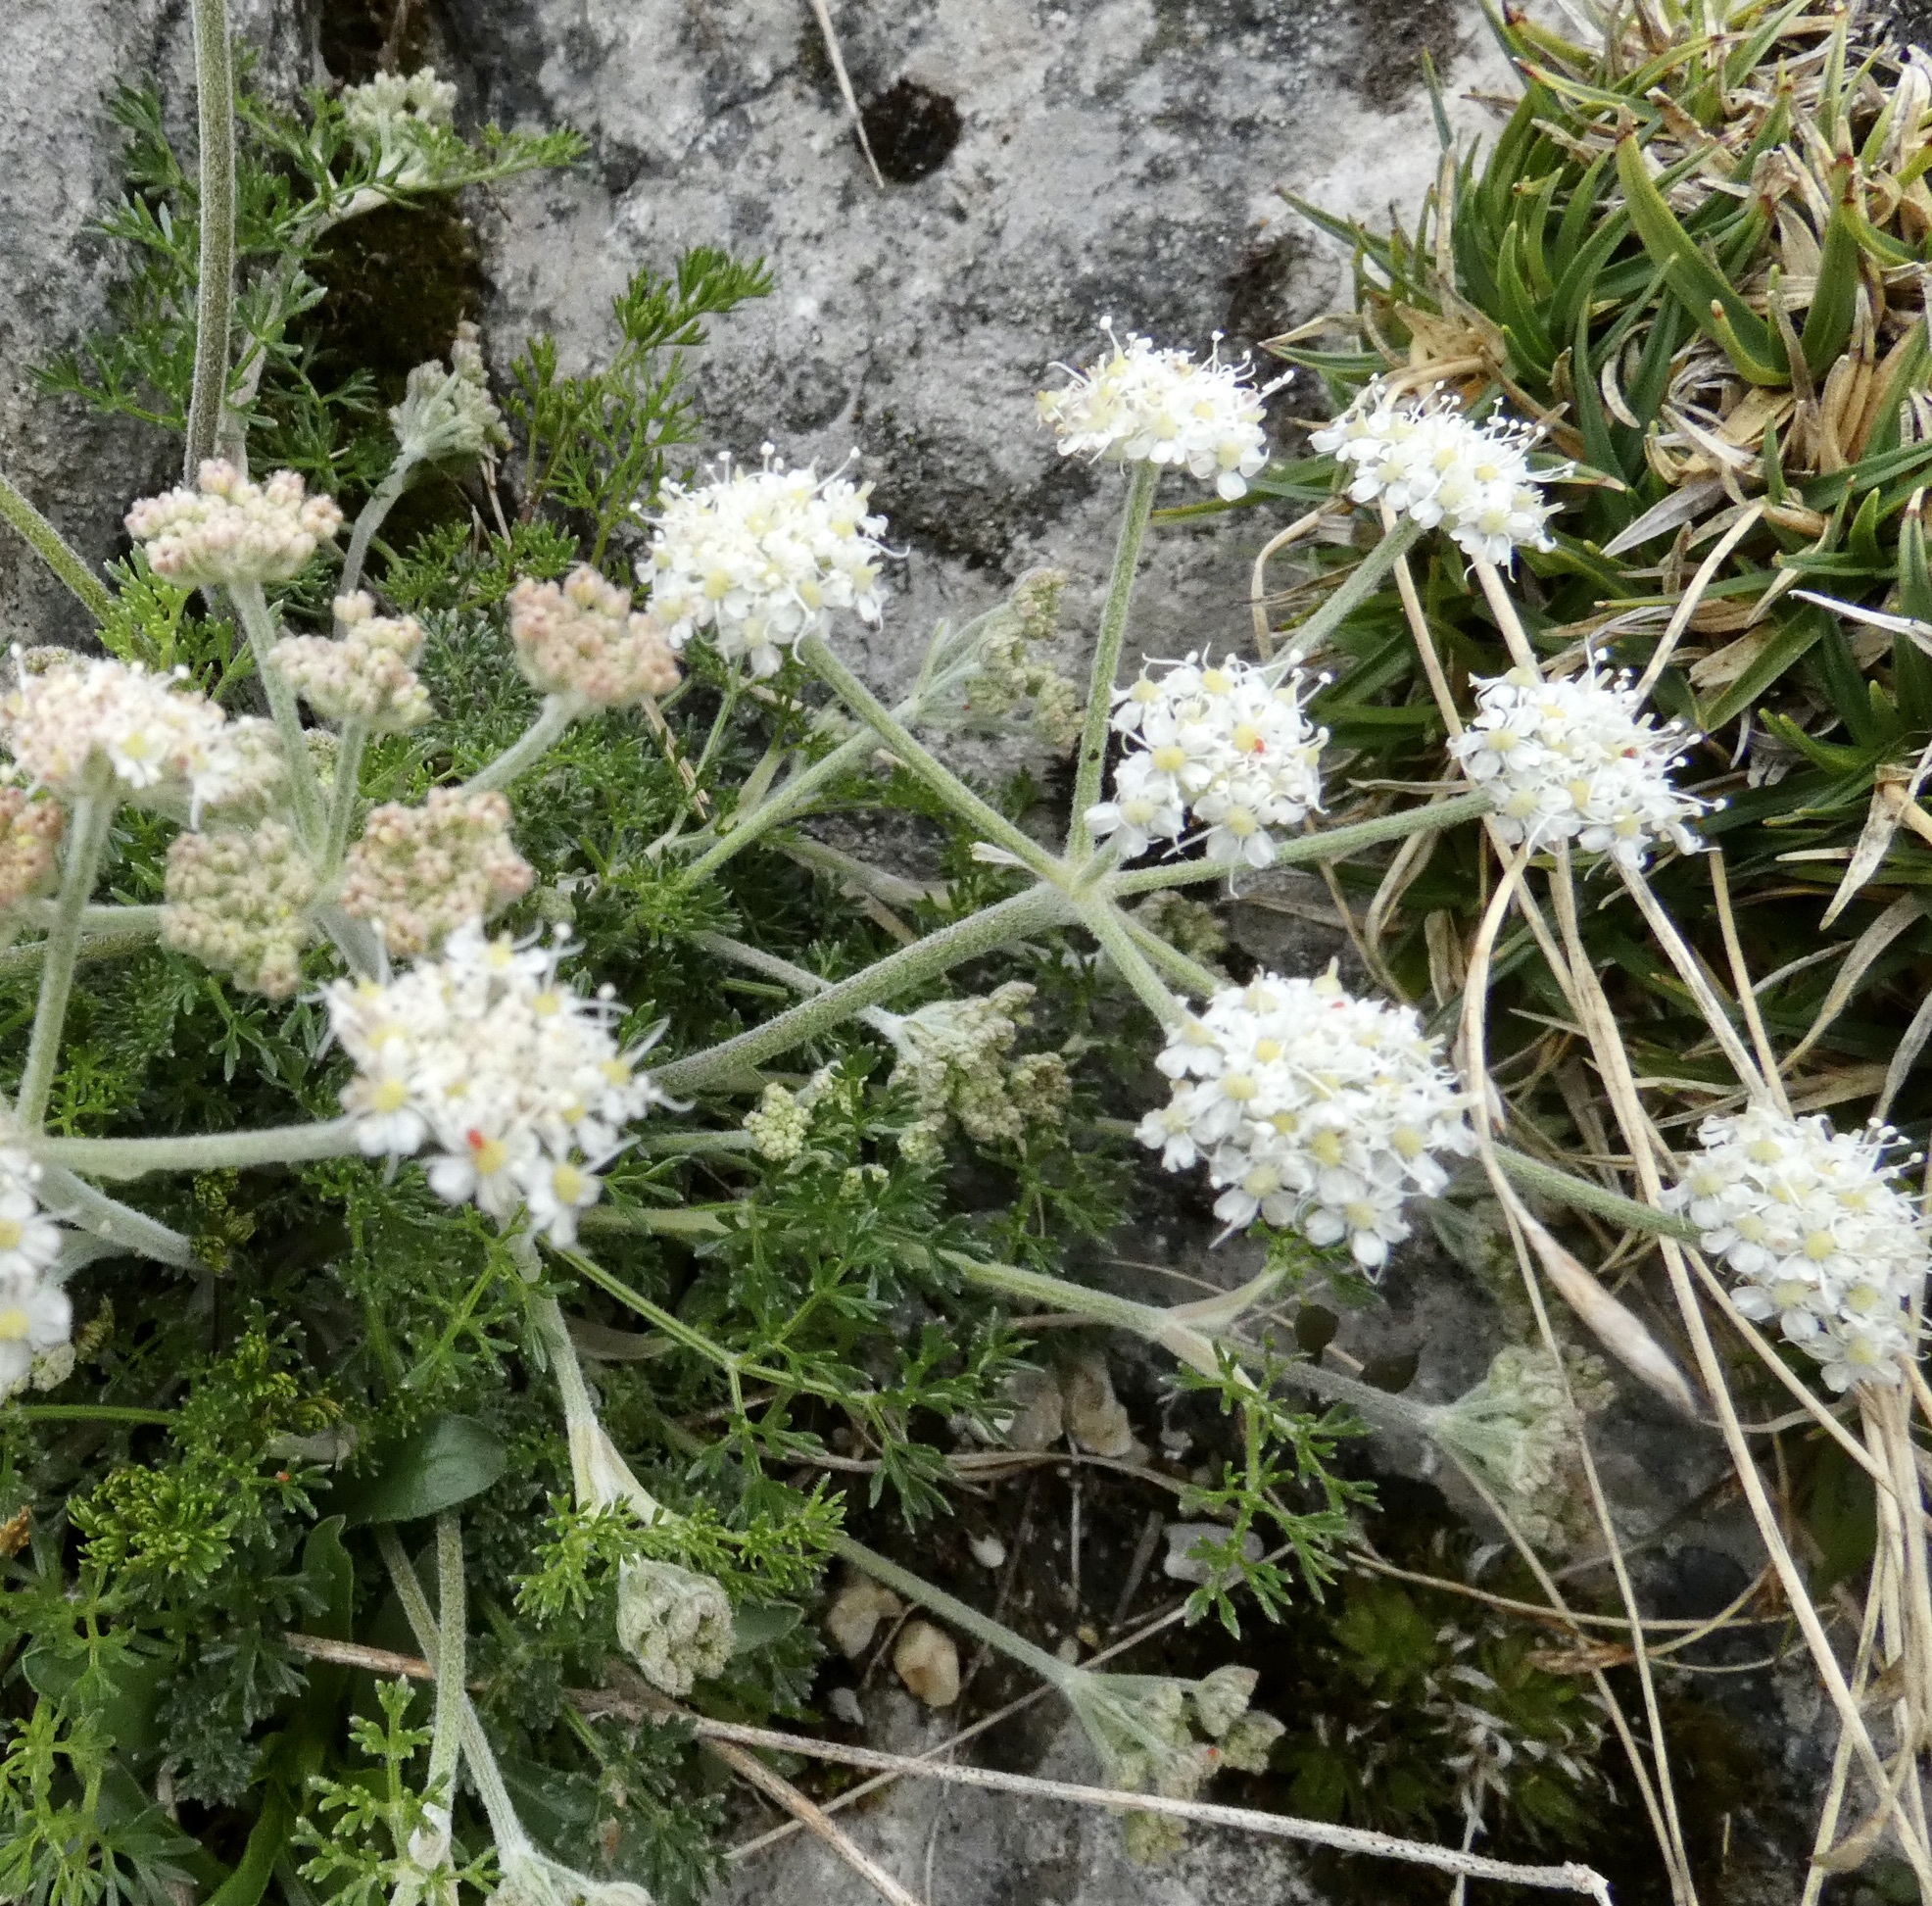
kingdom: Plantae
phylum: Tracheophyta
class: Magnoliopsida
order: Apiales
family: Apiaceae
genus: Athamanta
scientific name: Athamanta cretensis
